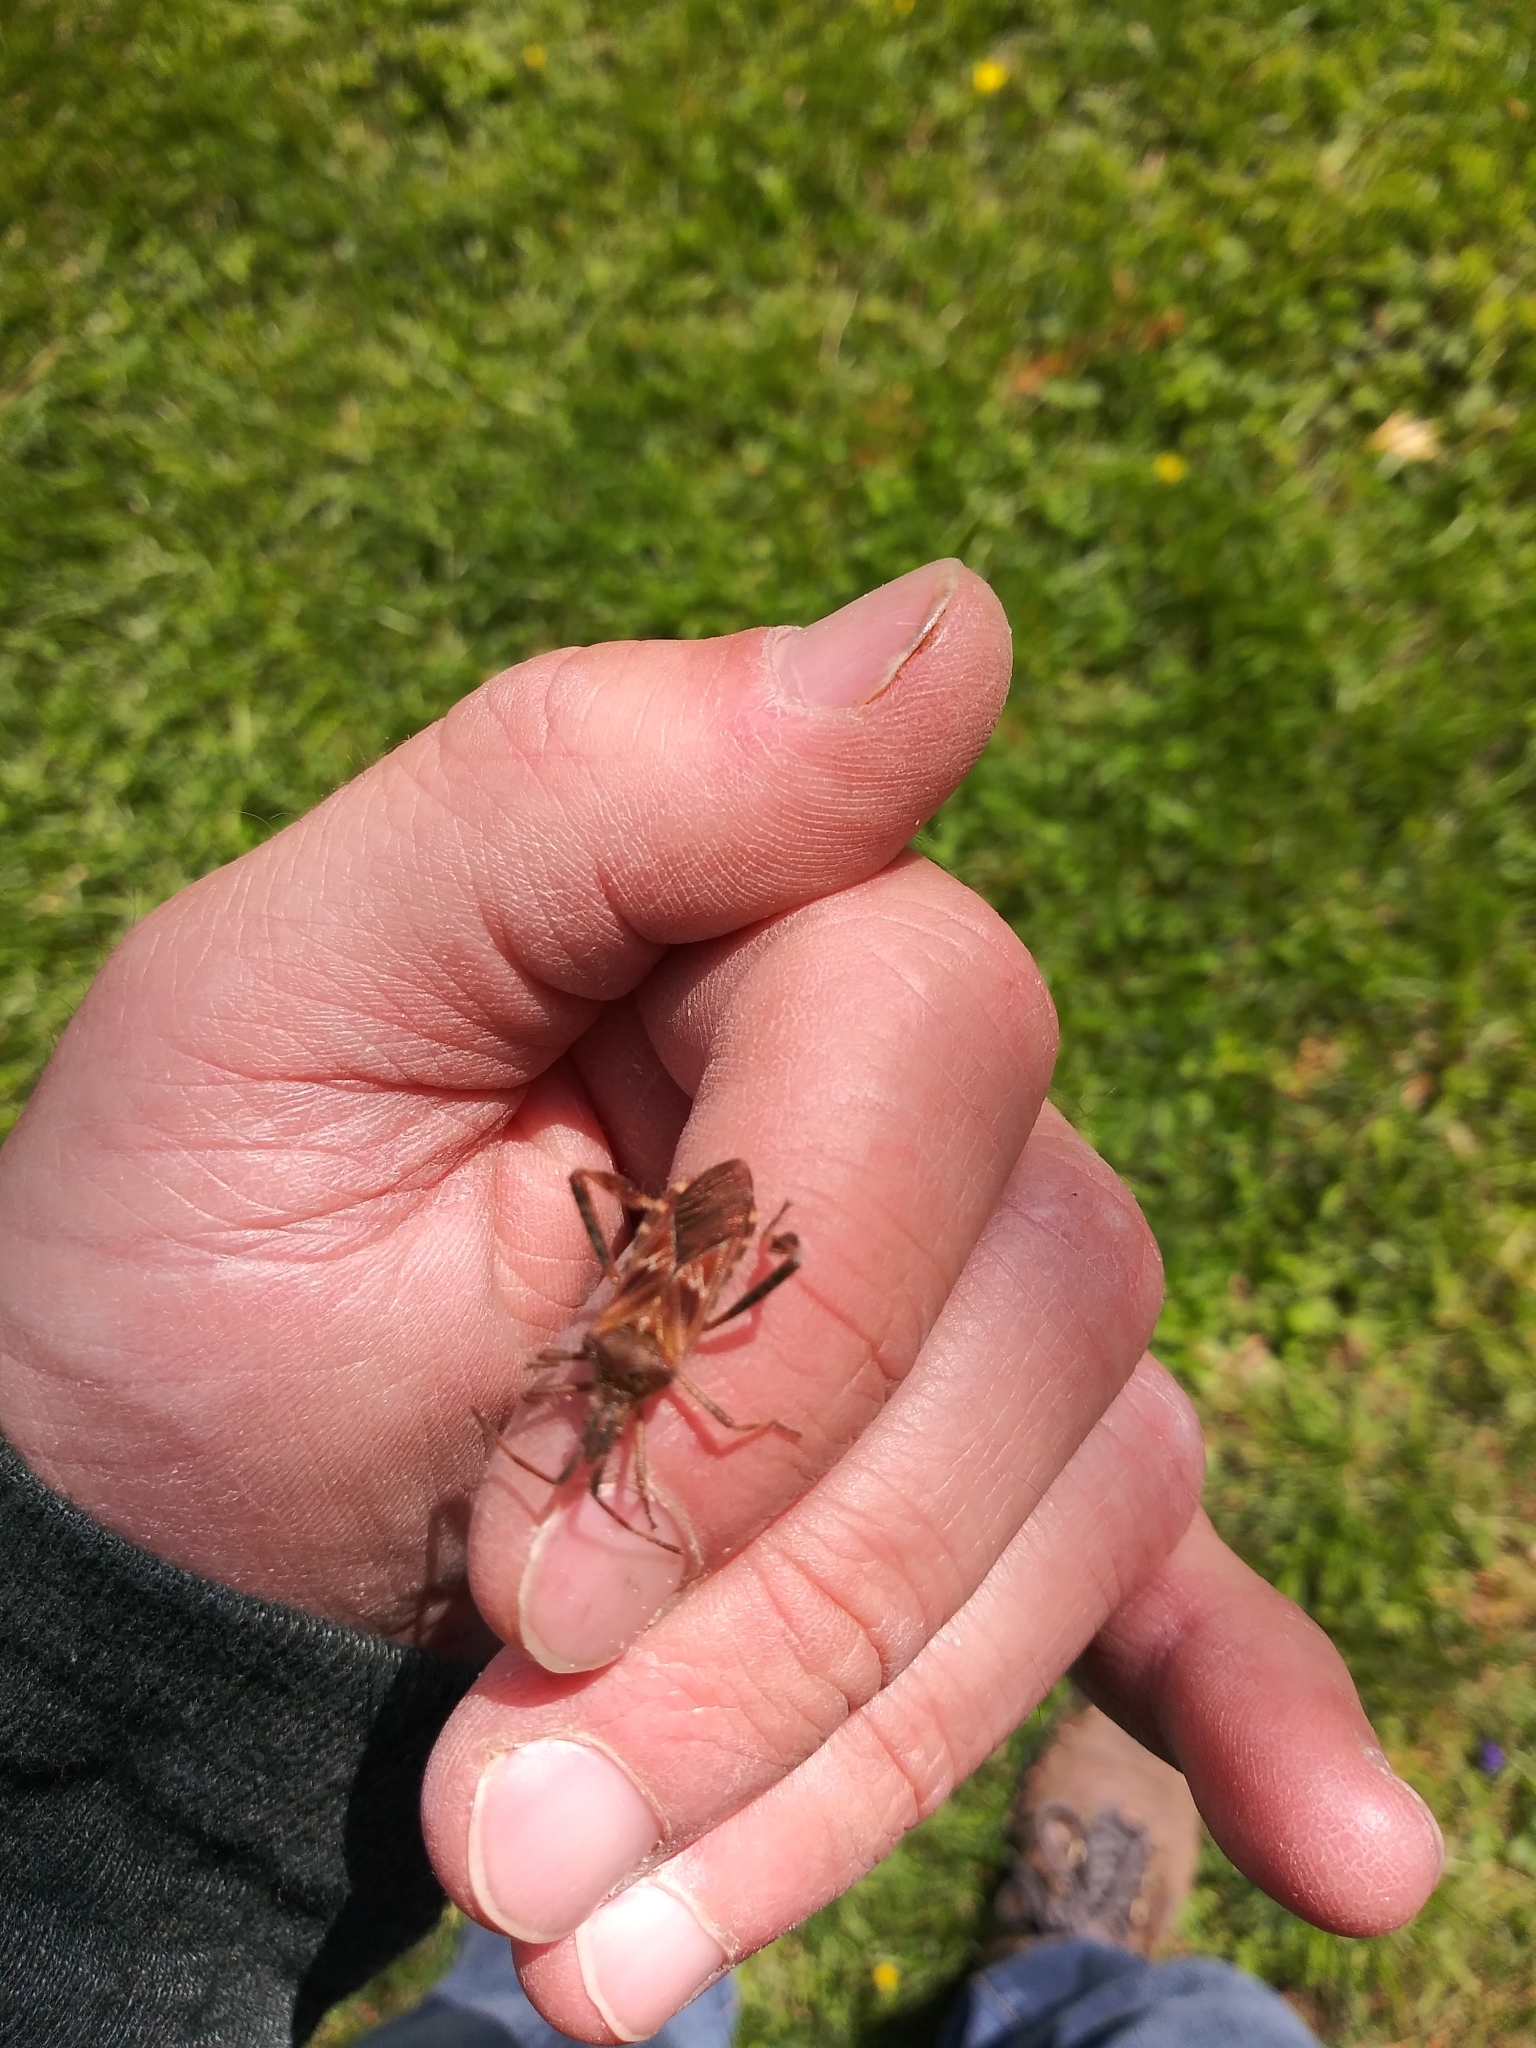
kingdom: Animalia
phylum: Arthropoda
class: Insecta
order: Hemiptera
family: Coreidae
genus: Leptoglossus
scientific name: Leptoglossus occidentalis
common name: Western conifer-seed bug
